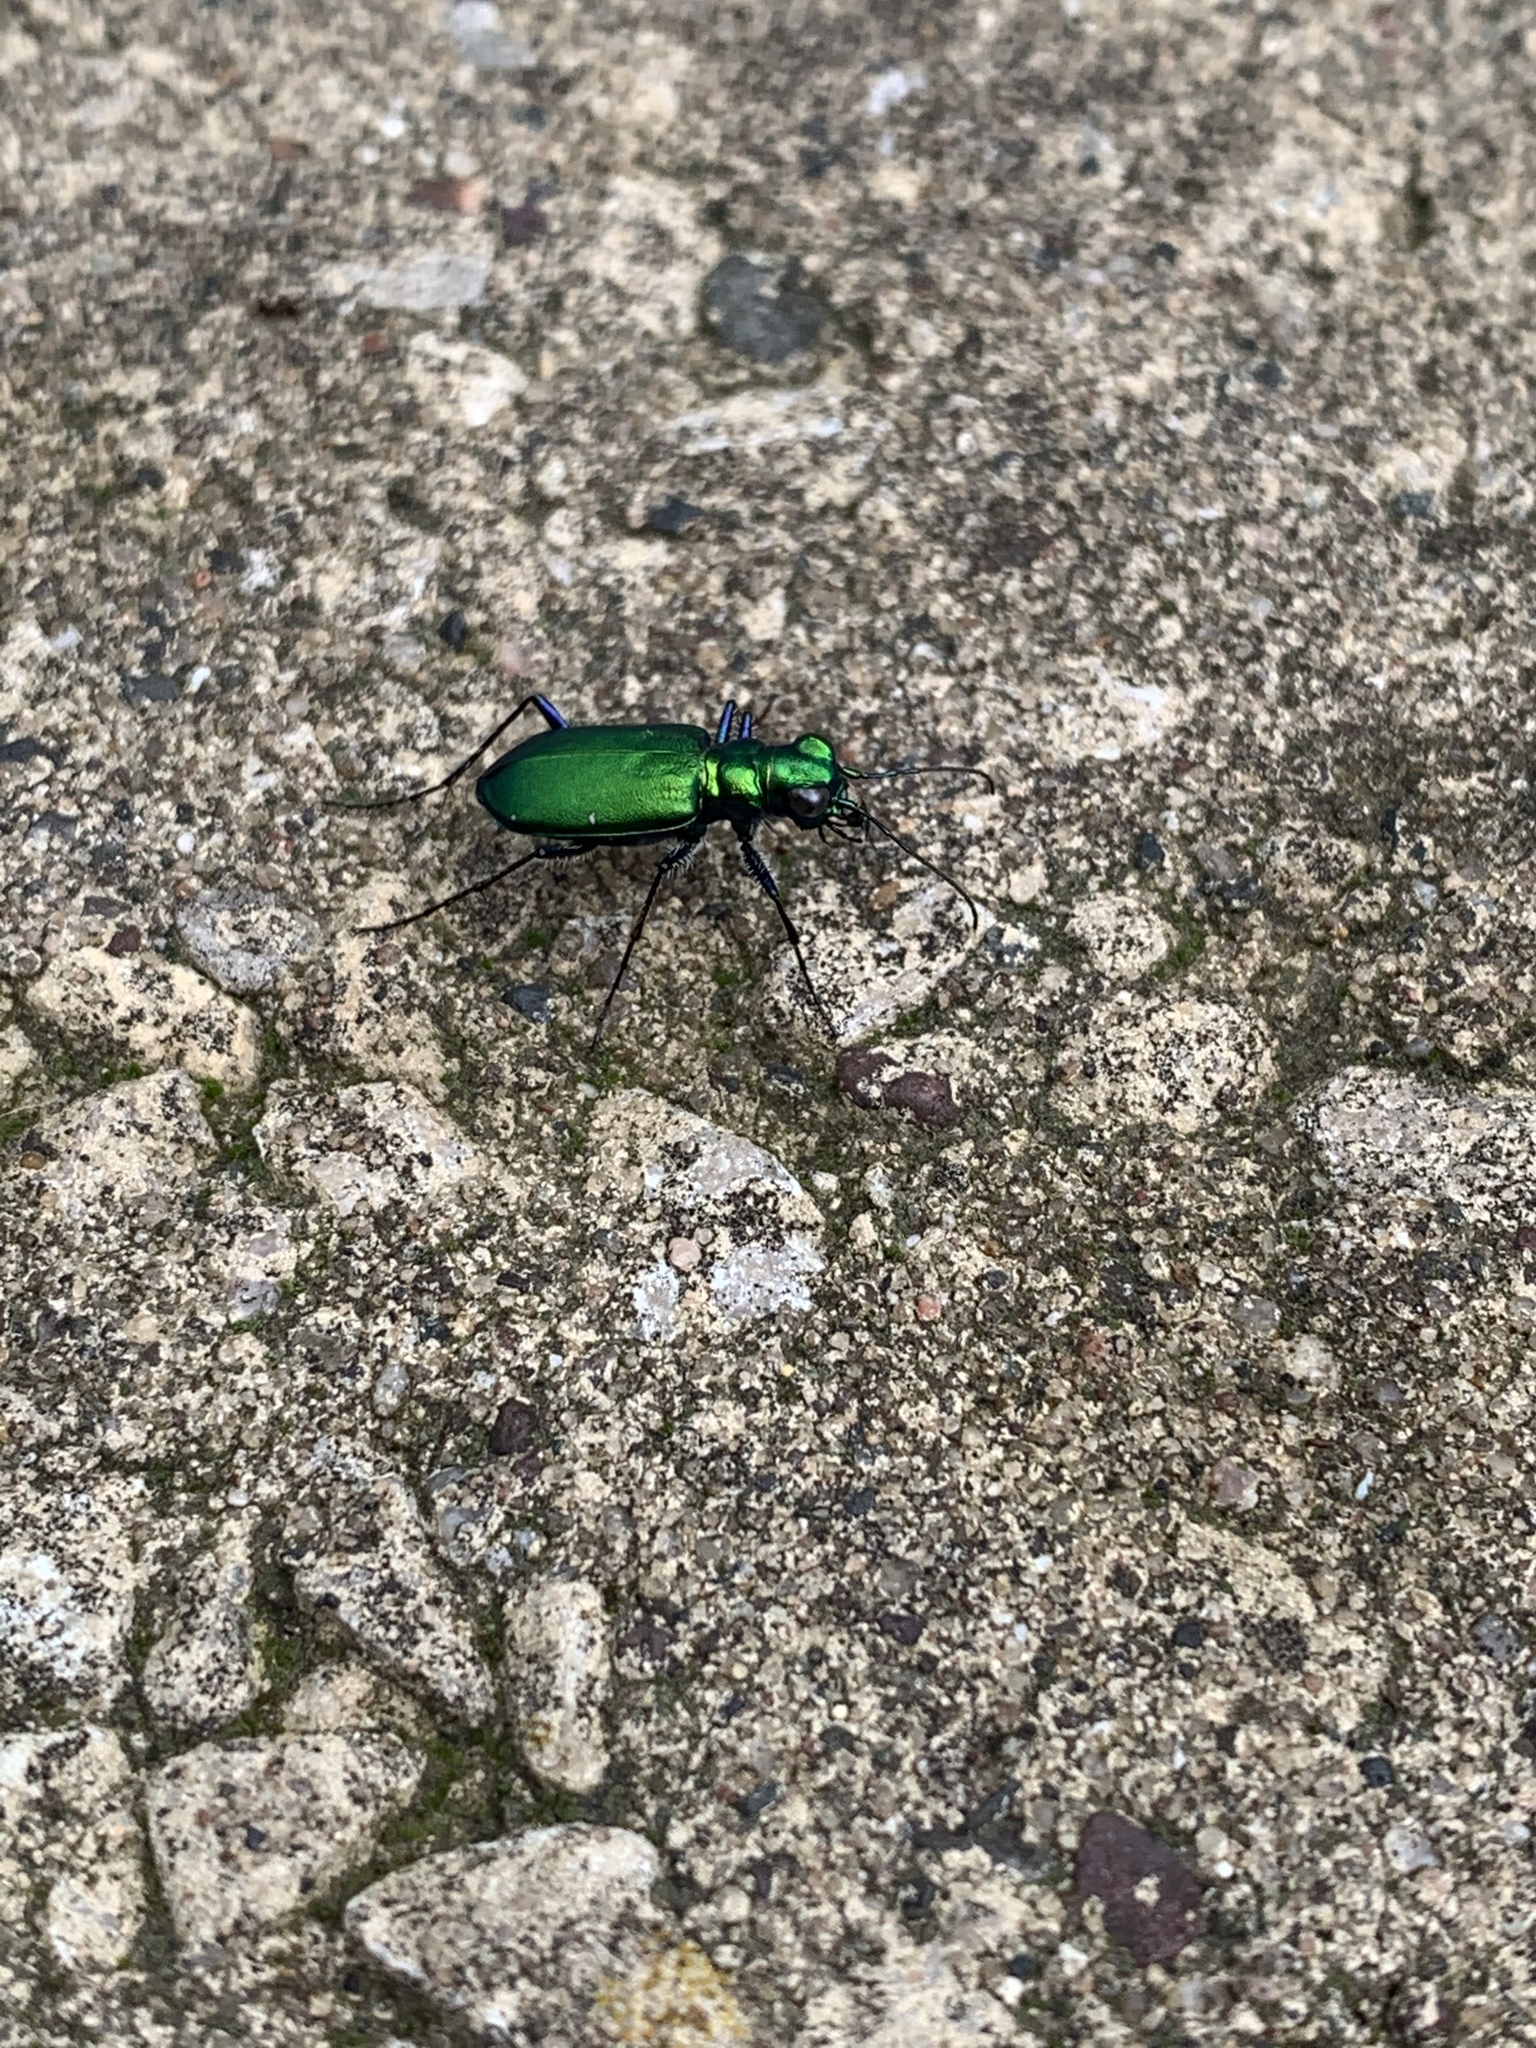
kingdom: Animalia
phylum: Arthropoda
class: Insecta
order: Coleoptera
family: Carabidae
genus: Cicindela
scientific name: Cicindela sexguttata
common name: Six-spotted tiger beetle
